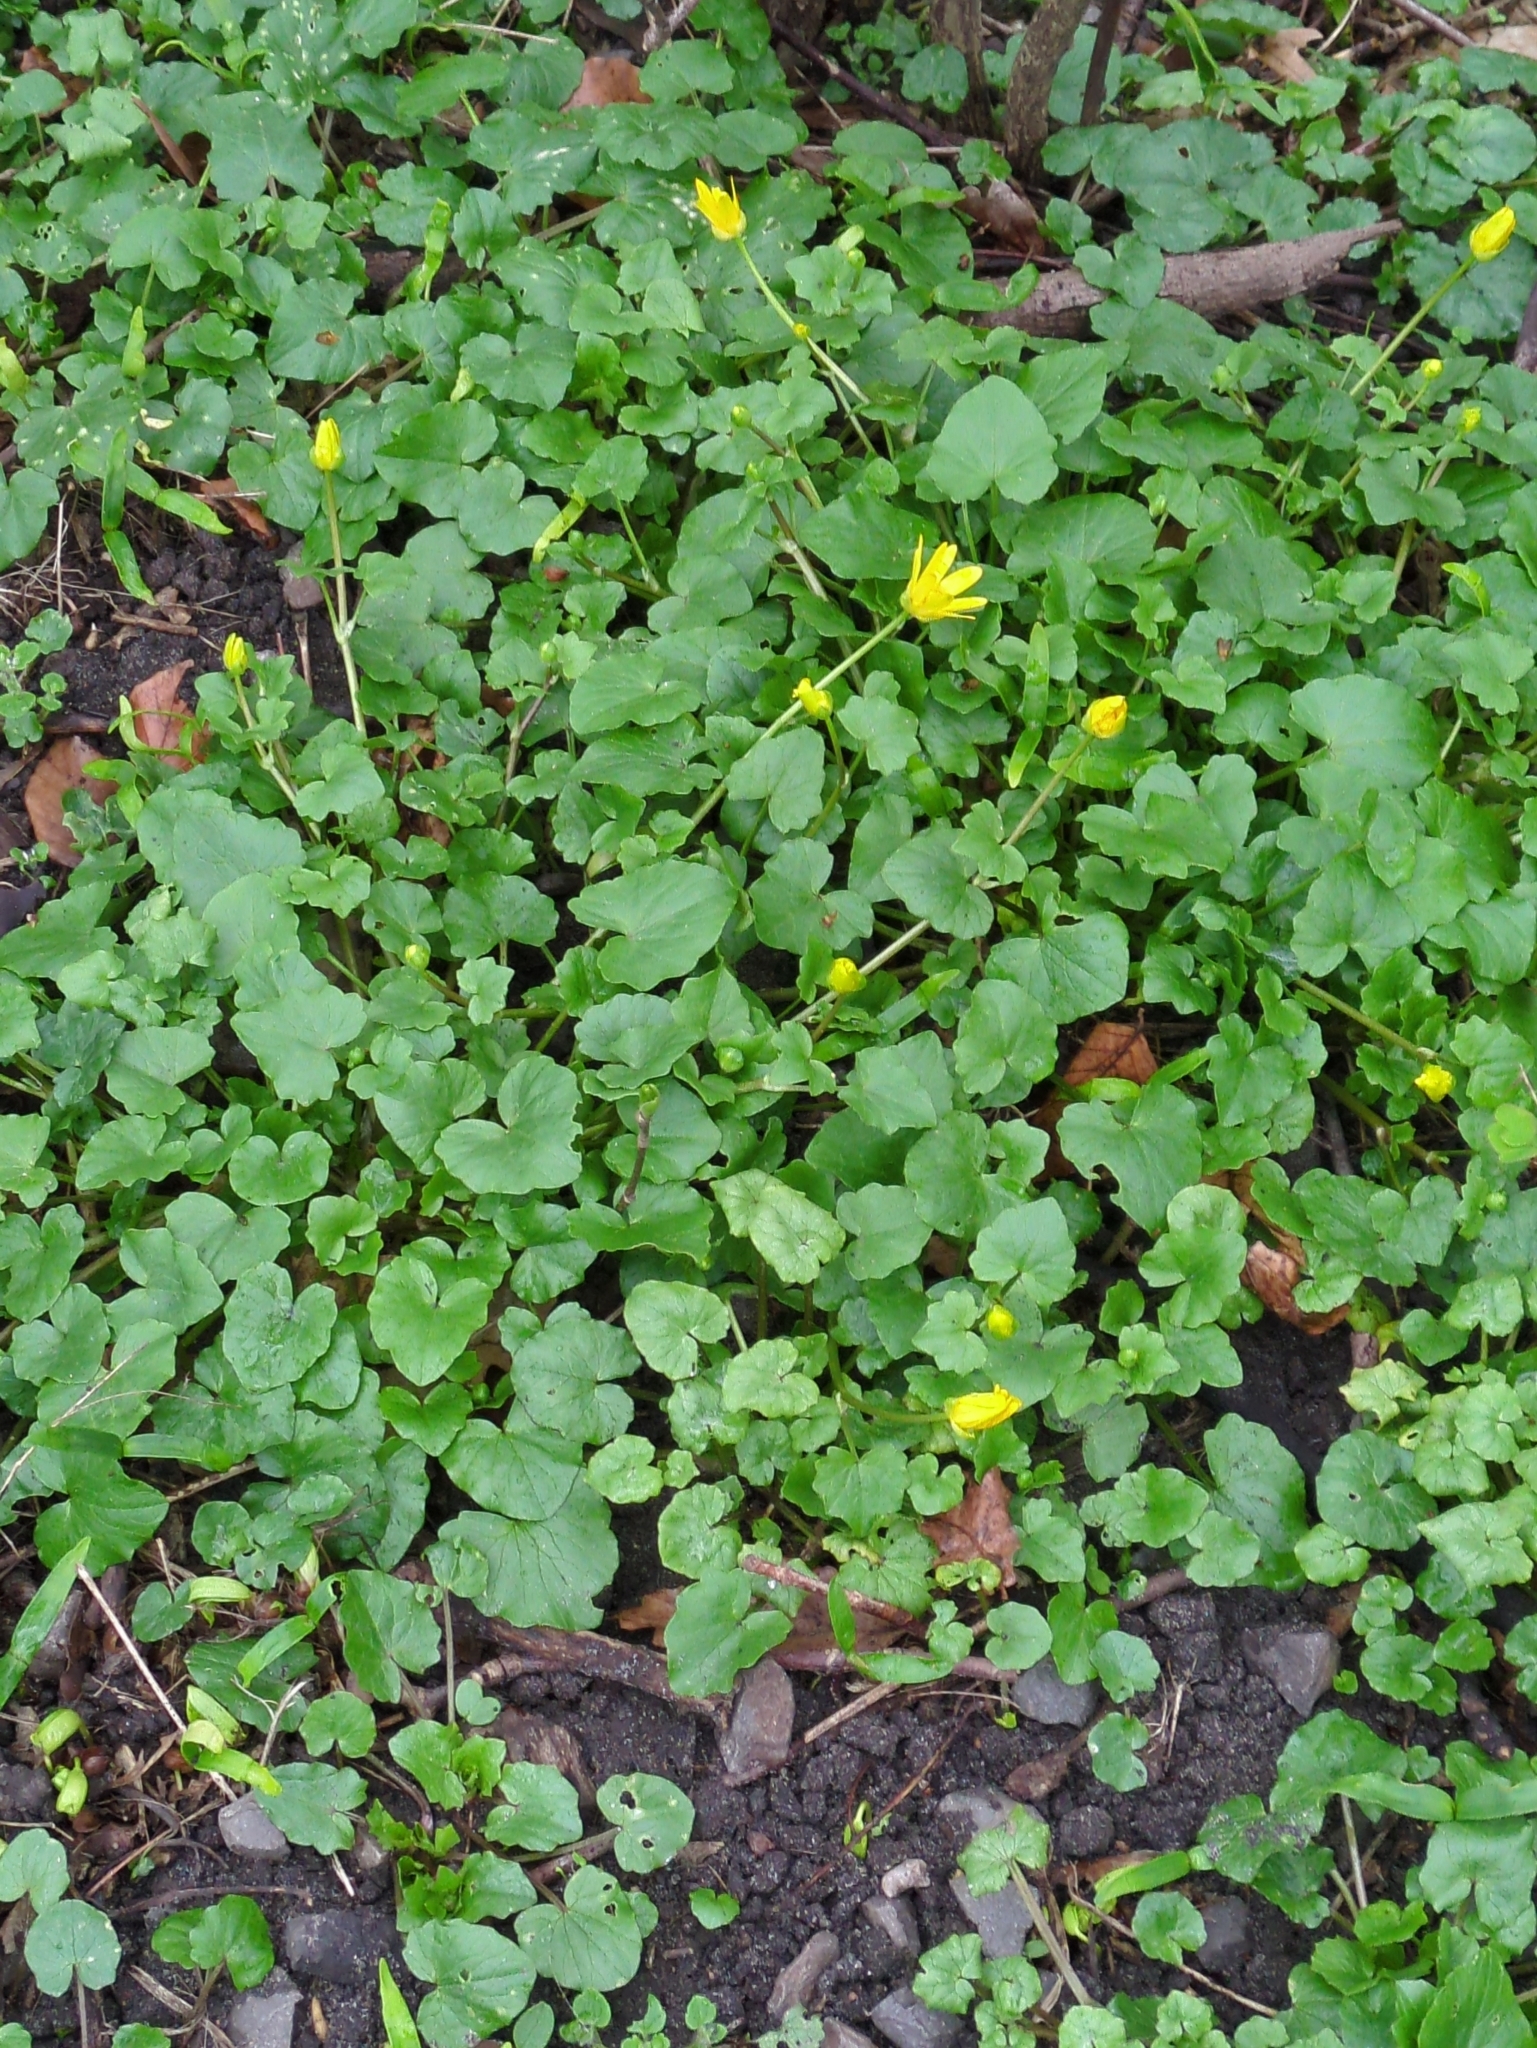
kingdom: Plantae
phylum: Tracheophyta
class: Magnoliopsida
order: Ranunculales
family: Ranunculaceae
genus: Ficaria
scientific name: Ficaria verna
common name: Lesser celandine
